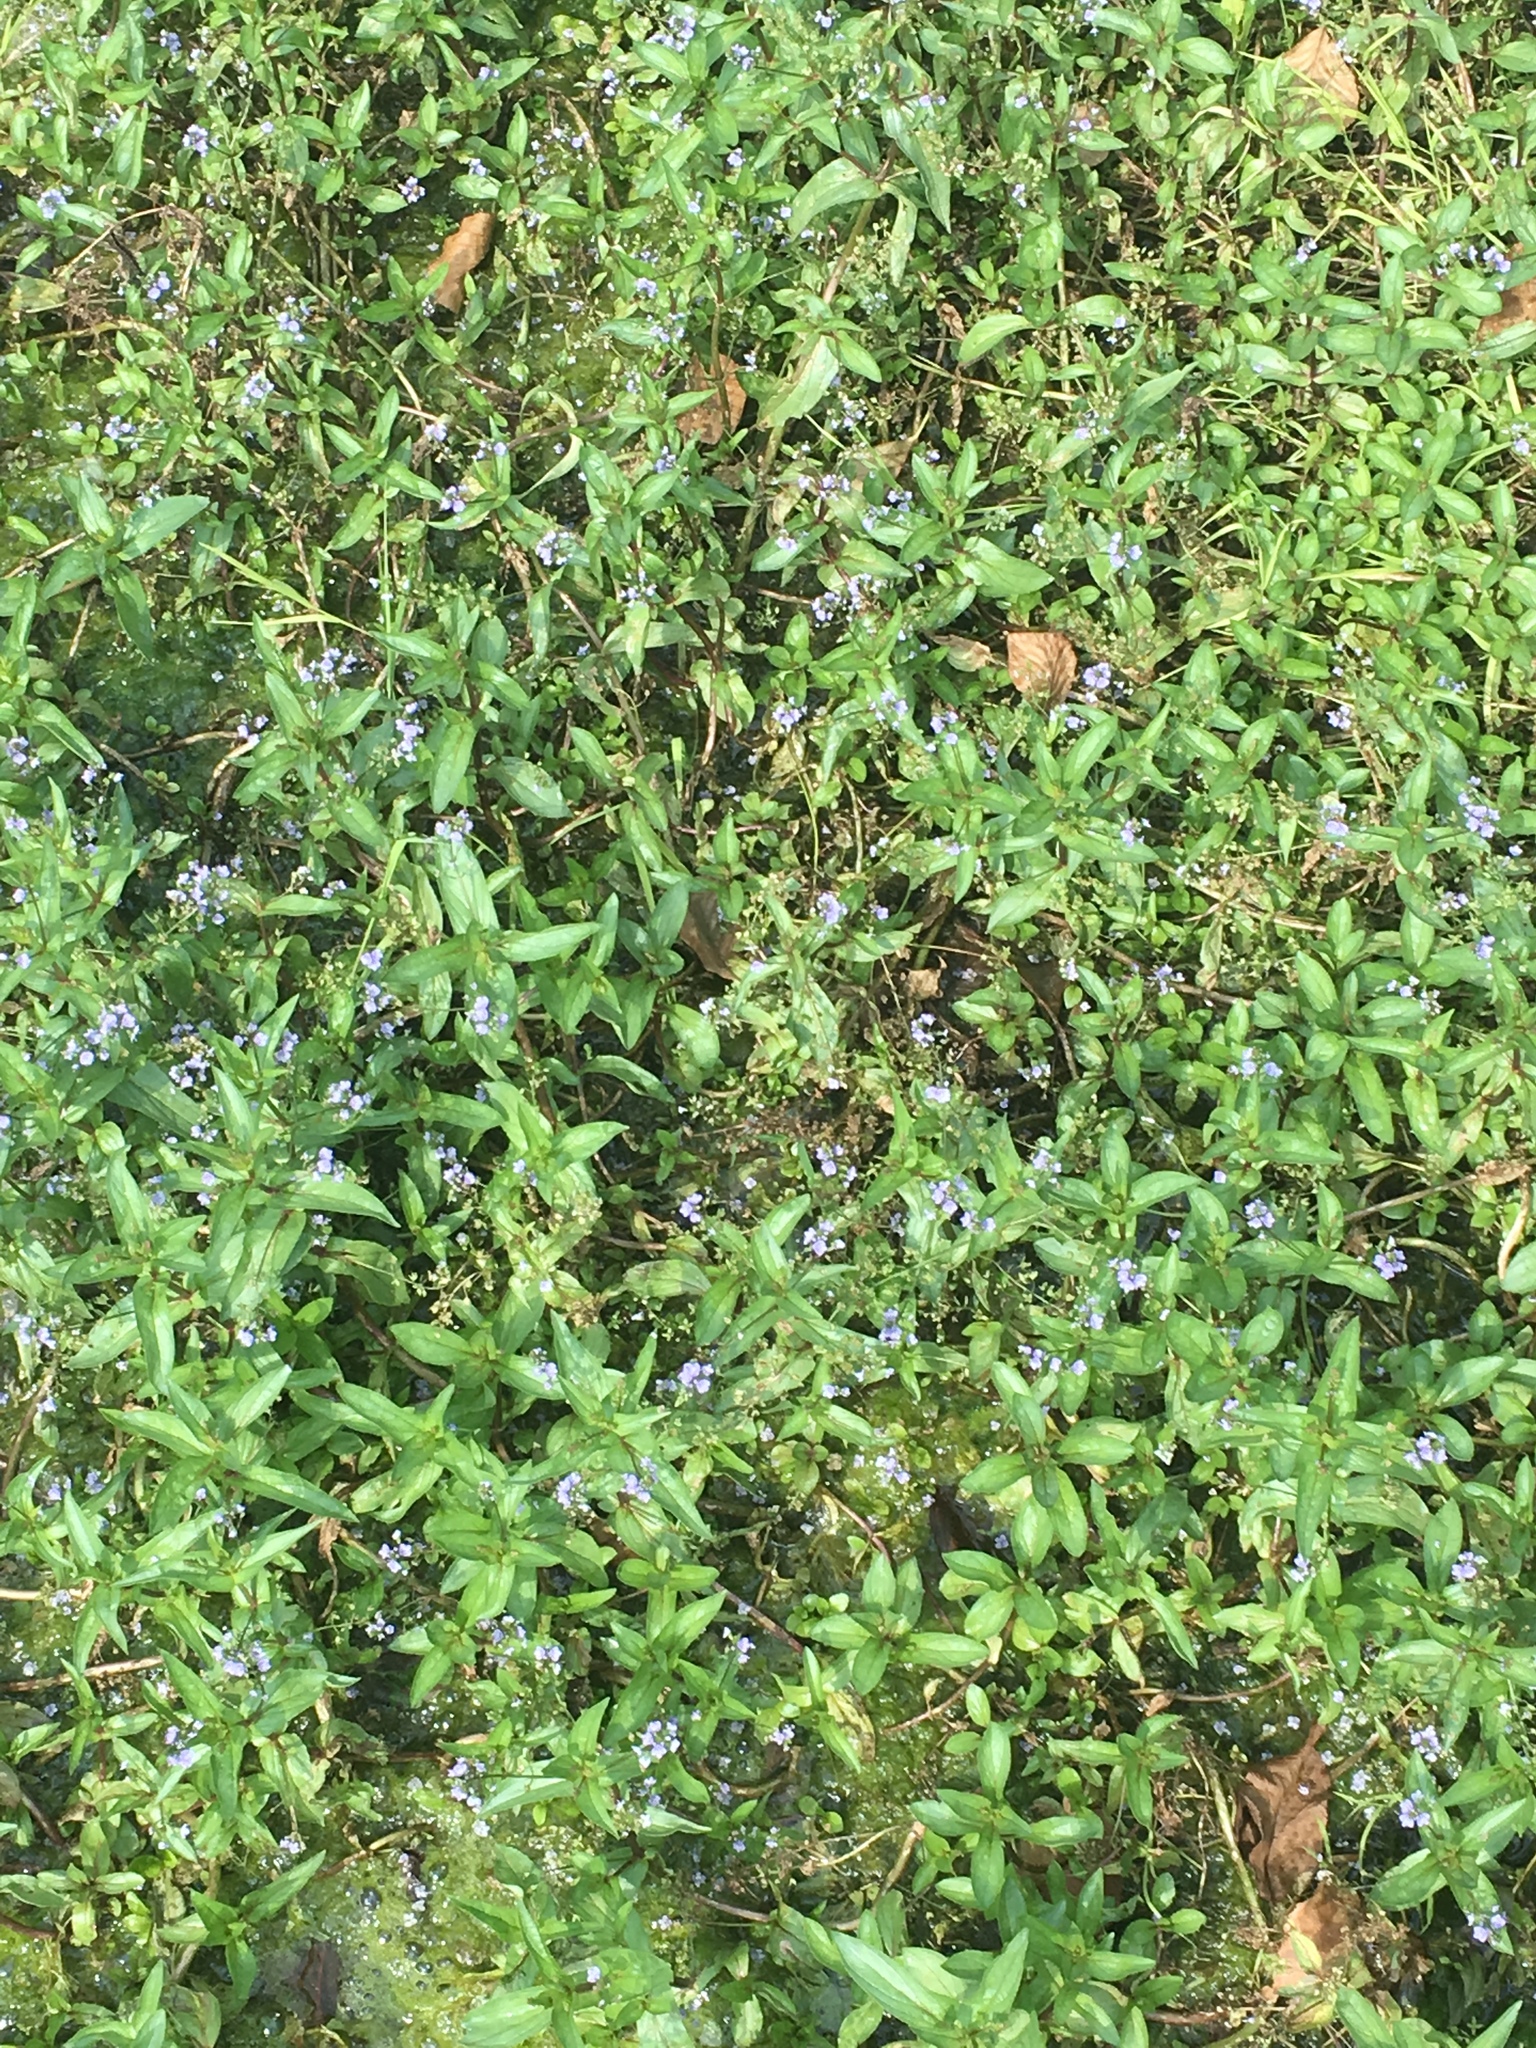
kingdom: Plantae
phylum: Tracheophyta
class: Magnoliopsida
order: Lamiales
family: Plantaginaceae
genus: Veronica
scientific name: Veronica anagallis-aquatica
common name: Water speedwell
